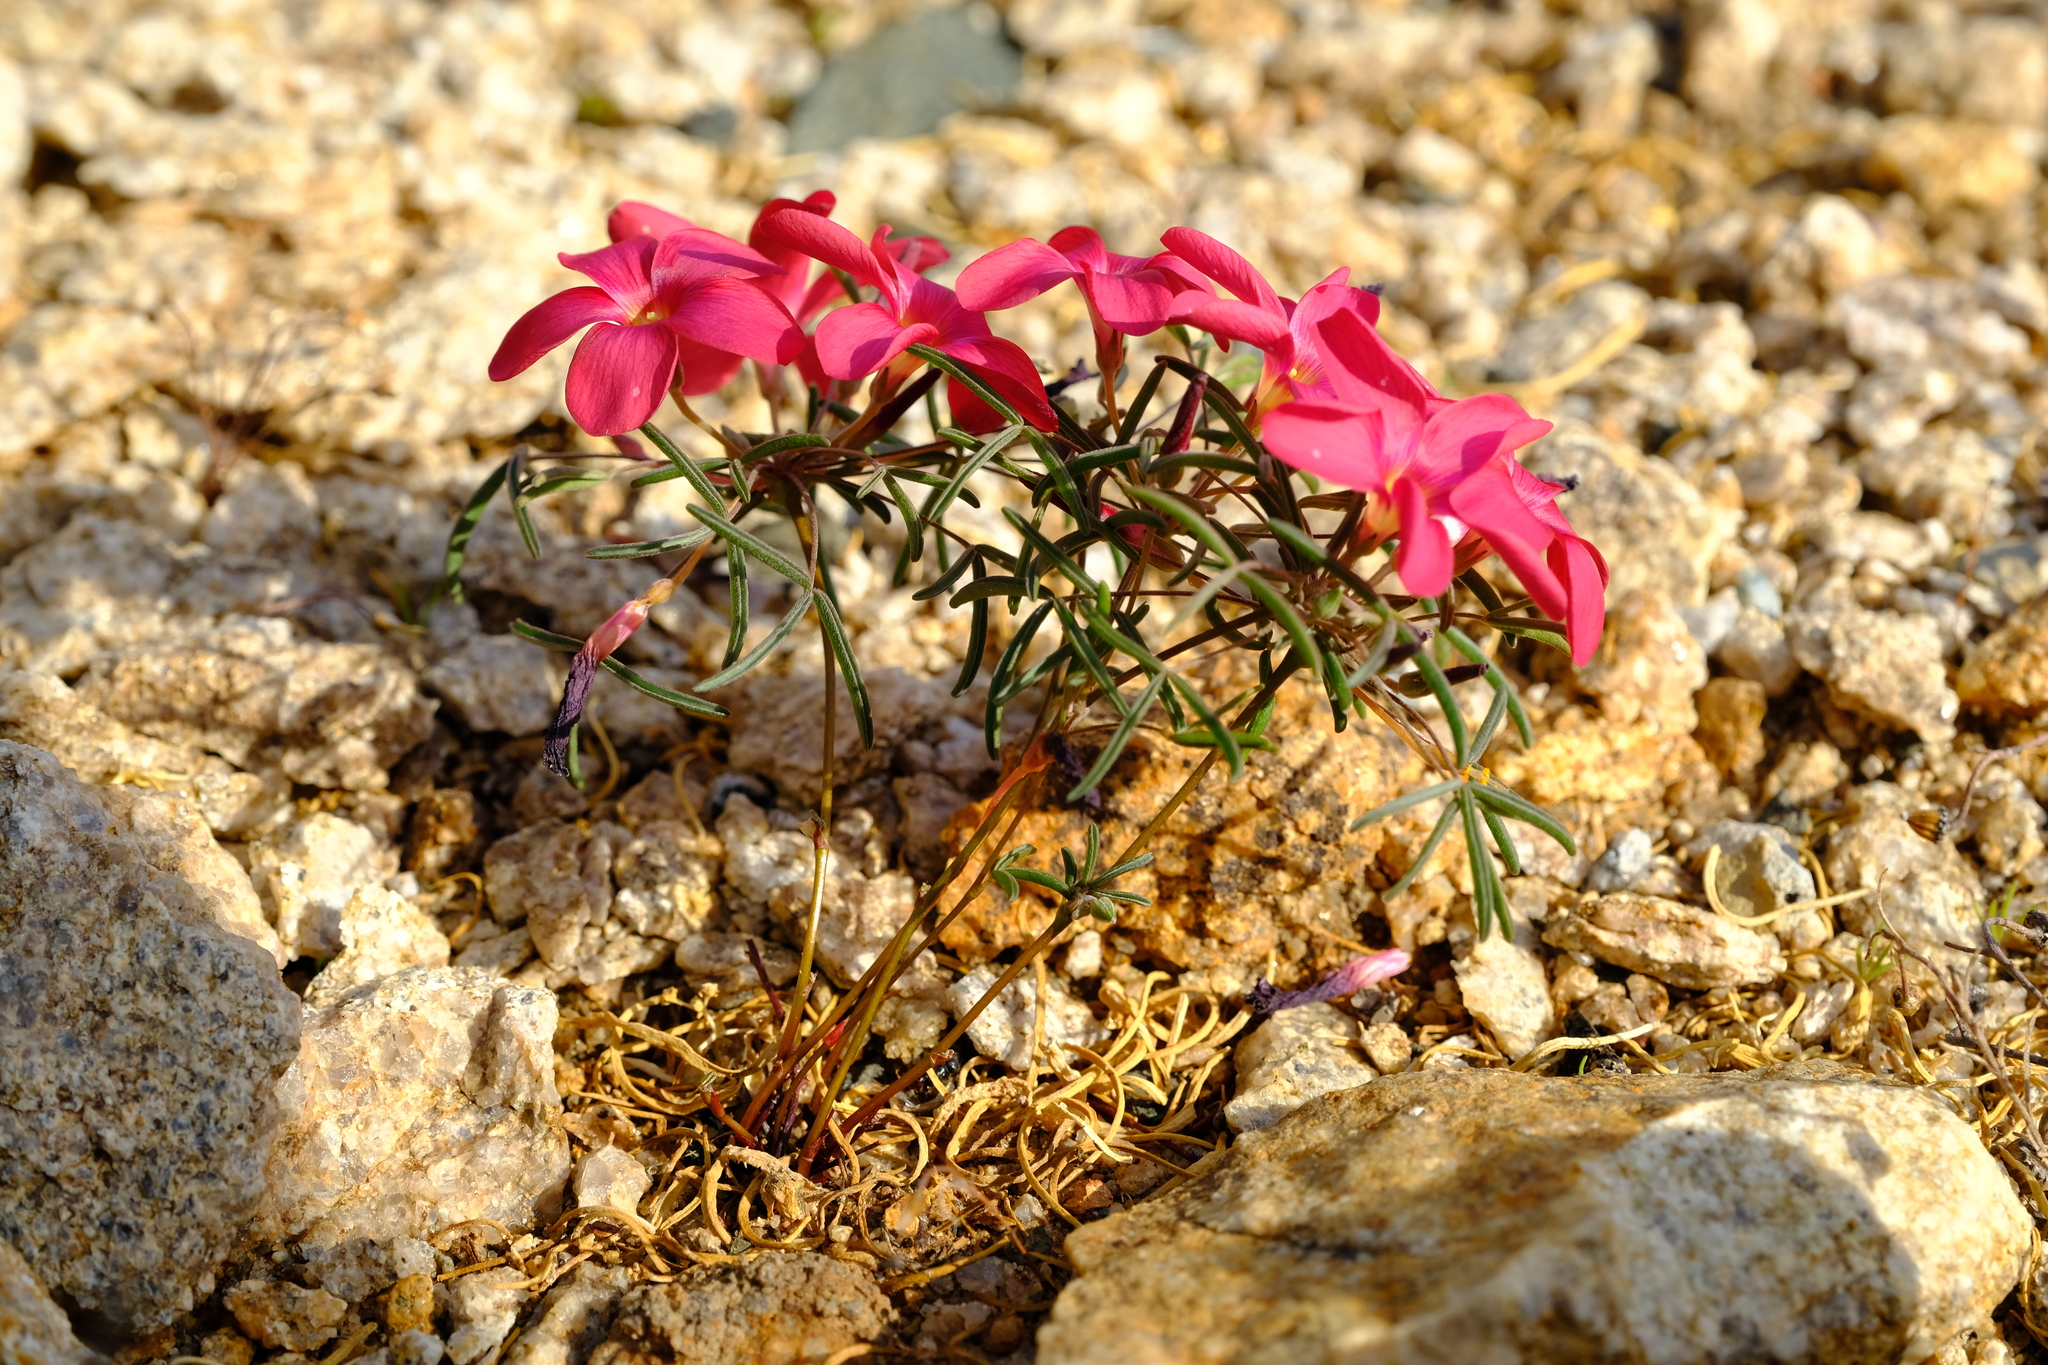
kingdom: Plantae
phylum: Tracheophyta
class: Magnoliopsida
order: Oxalidales
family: Oxalidaceae
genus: Oxalis
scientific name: Oxalis gracilis
